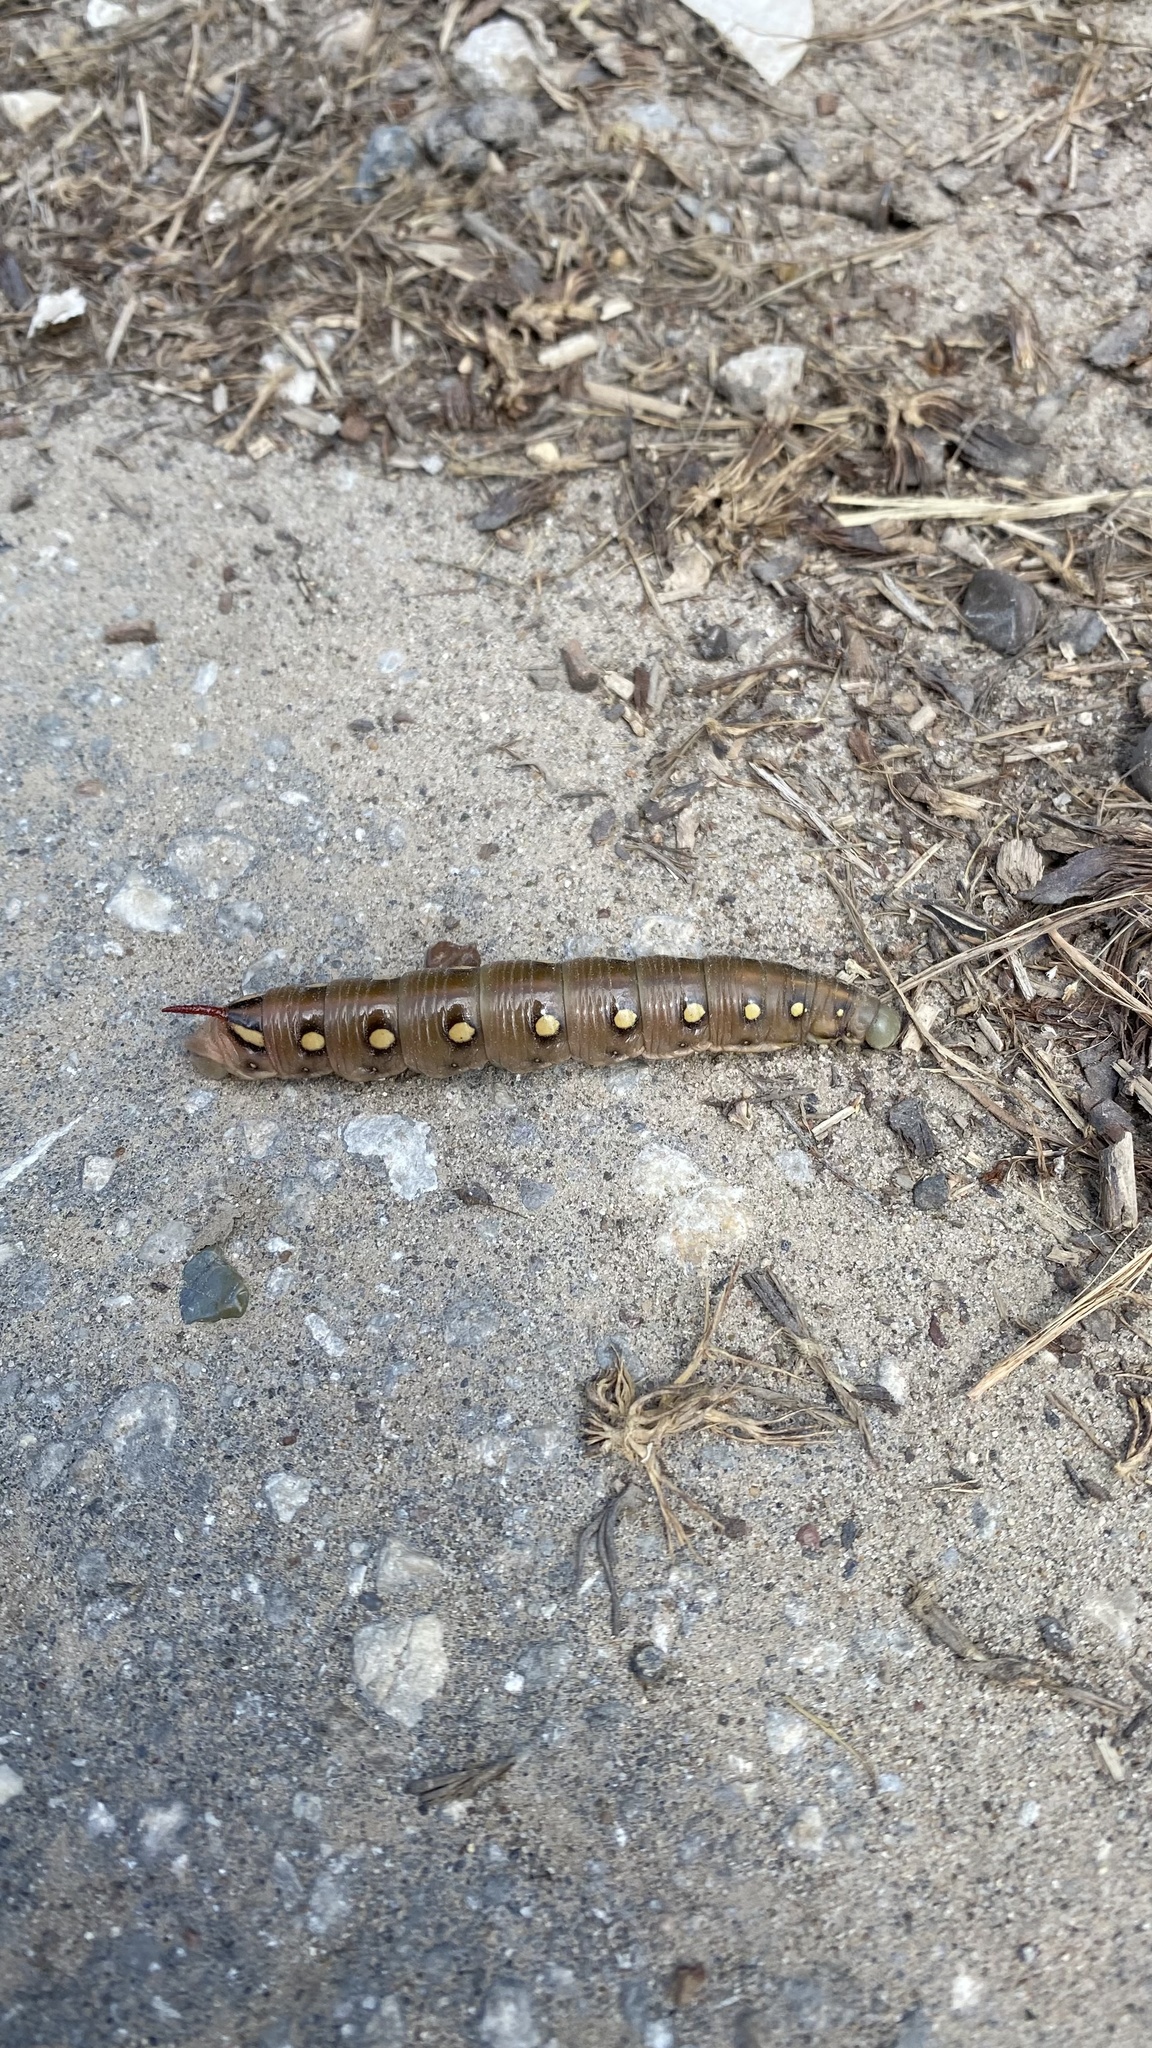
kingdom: Animalia
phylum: Arthropoda
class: Insecta
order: Lepidoptera
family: Sphingidae
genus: Hyles
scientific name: Hyles gallii
